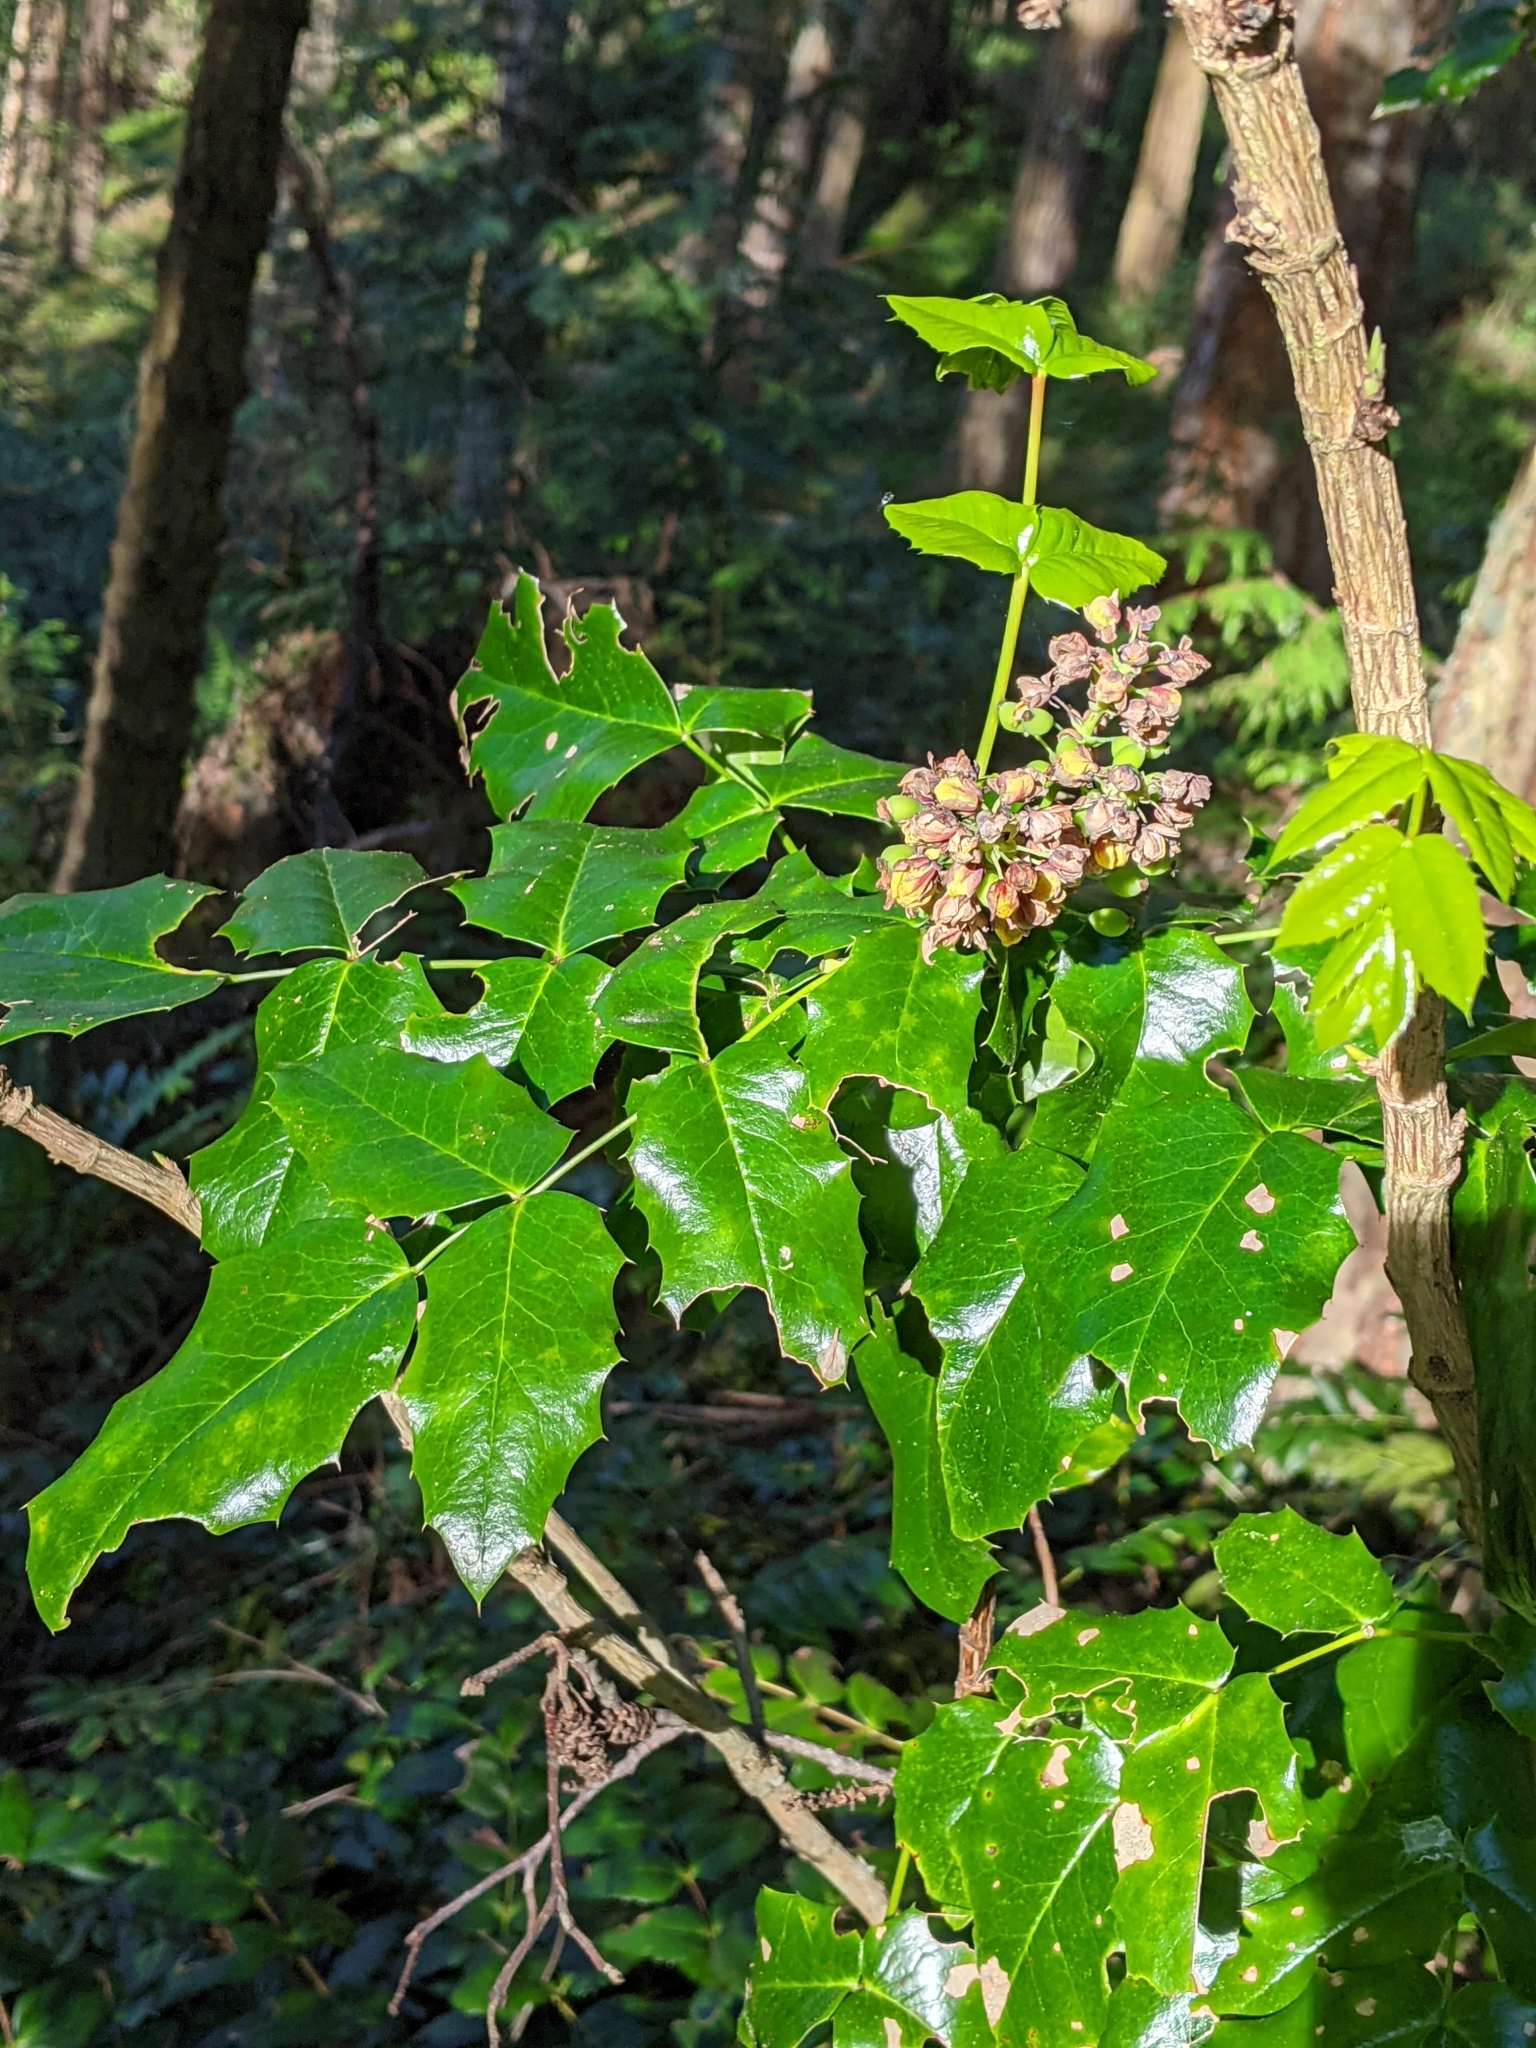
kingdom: Plantae
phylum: Tracheophyta
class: Magnoliopsida
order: Ranunculales
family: Berberidaceae
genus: Mahonia
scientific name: Mahonia aquifolium
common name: Oregon-grape
